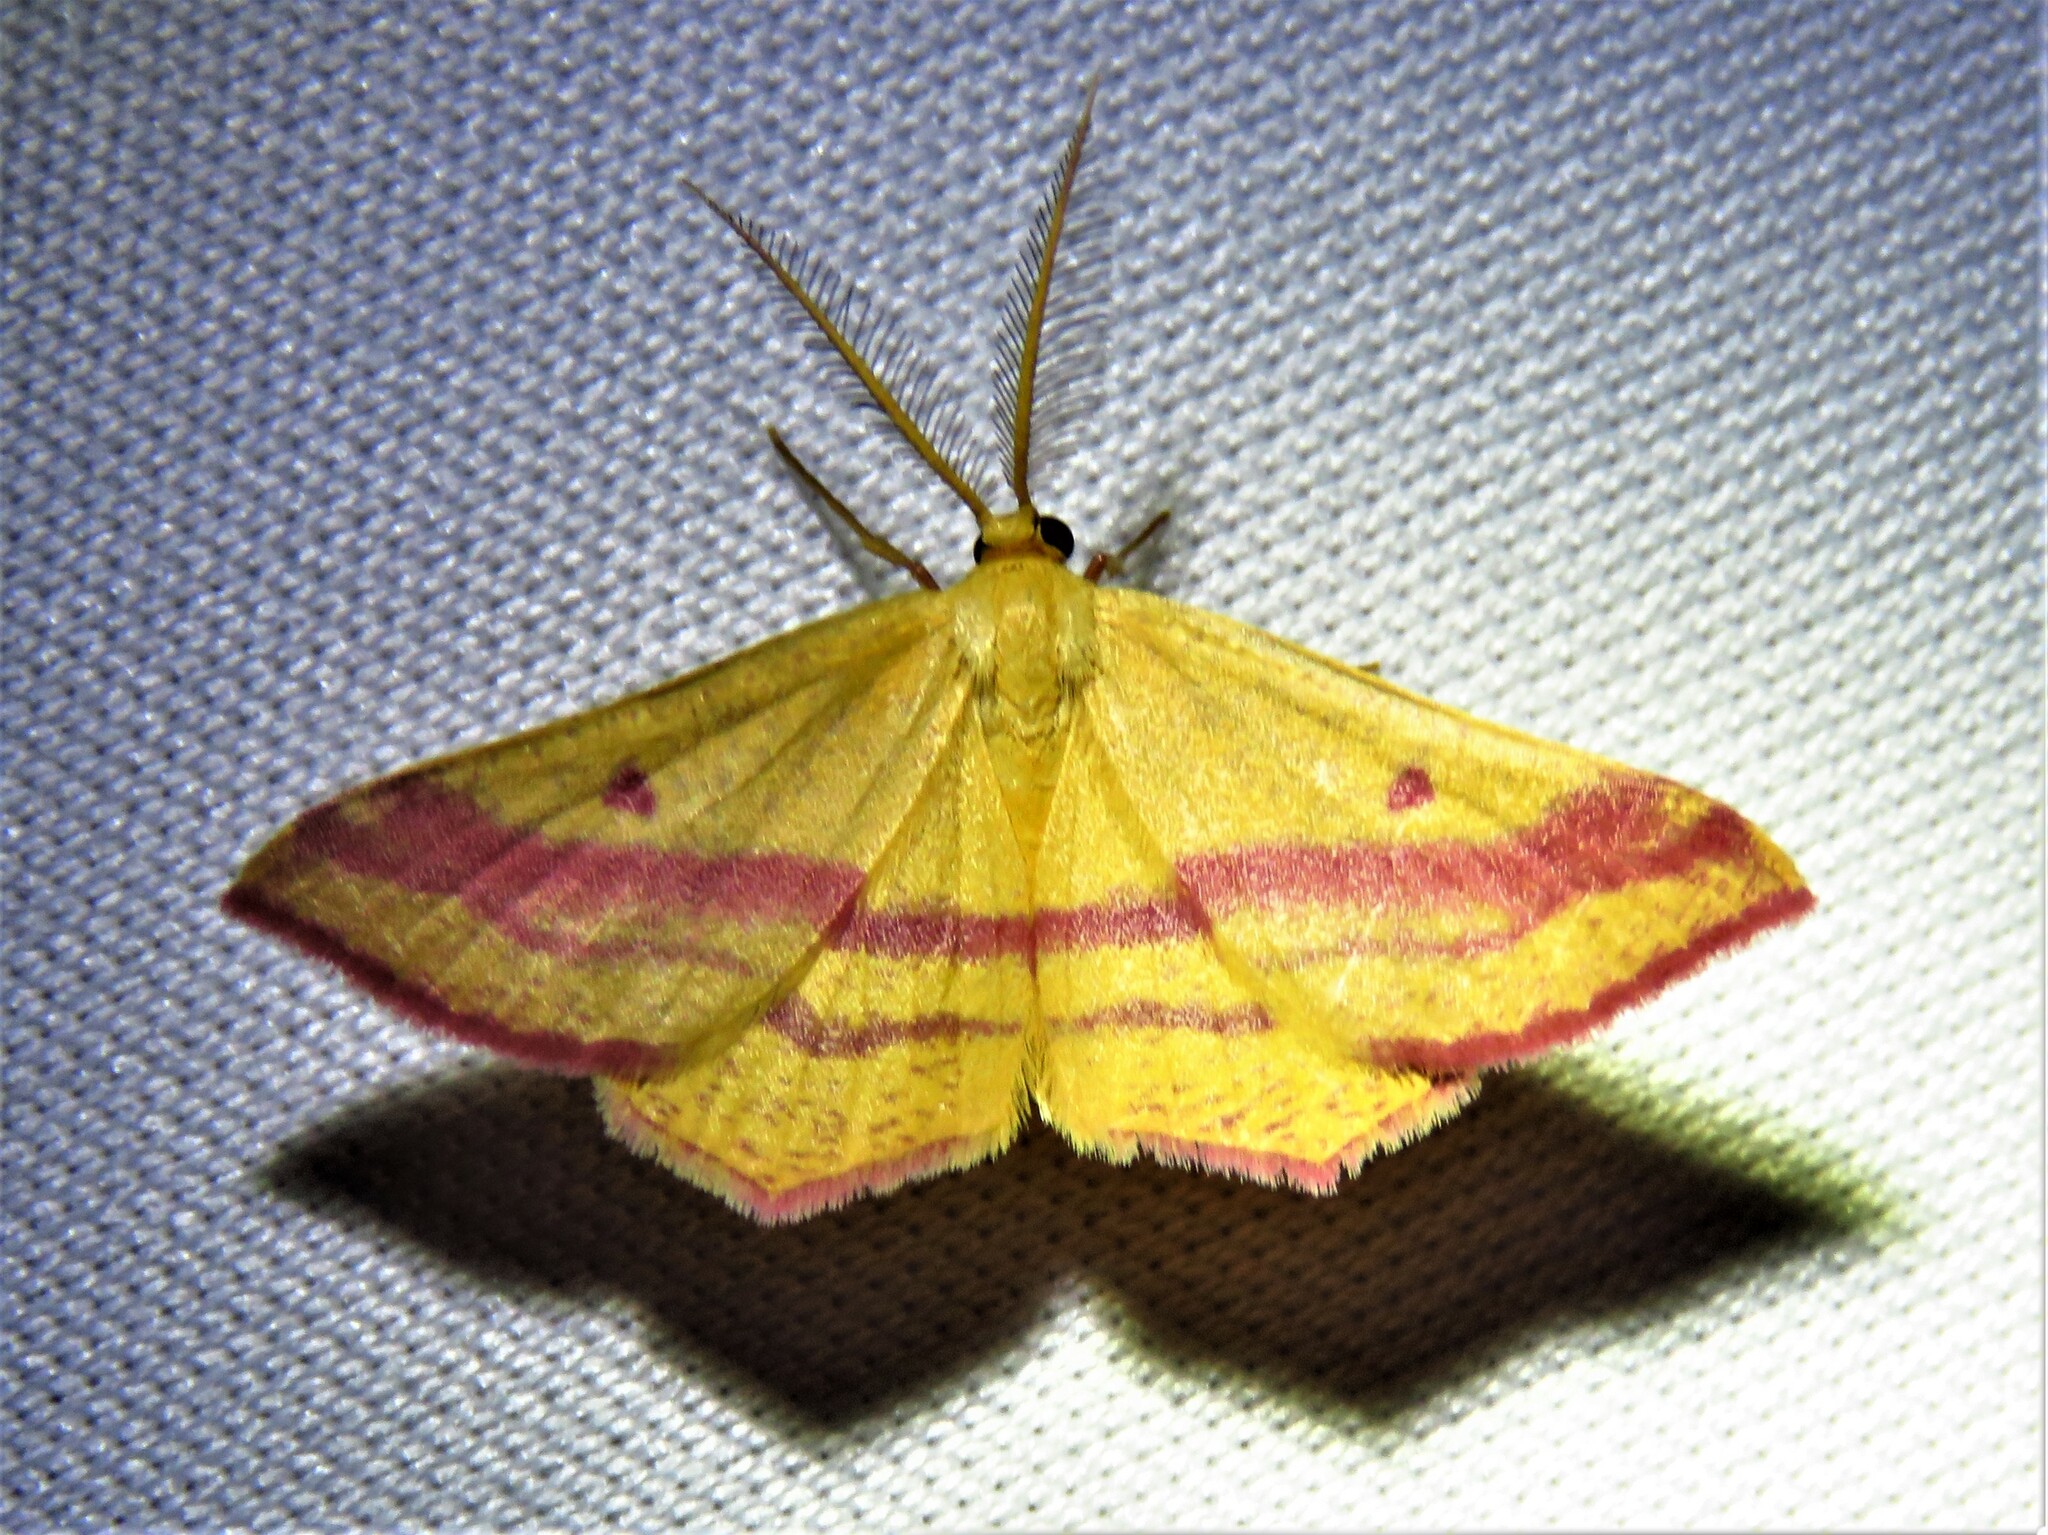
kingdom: Animalia
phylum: Arthropoda
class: Insecta
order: Lepidoptera
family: Geometridae
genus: Haematopis
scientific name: Haematopis grataria
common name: Chickweed geometer
